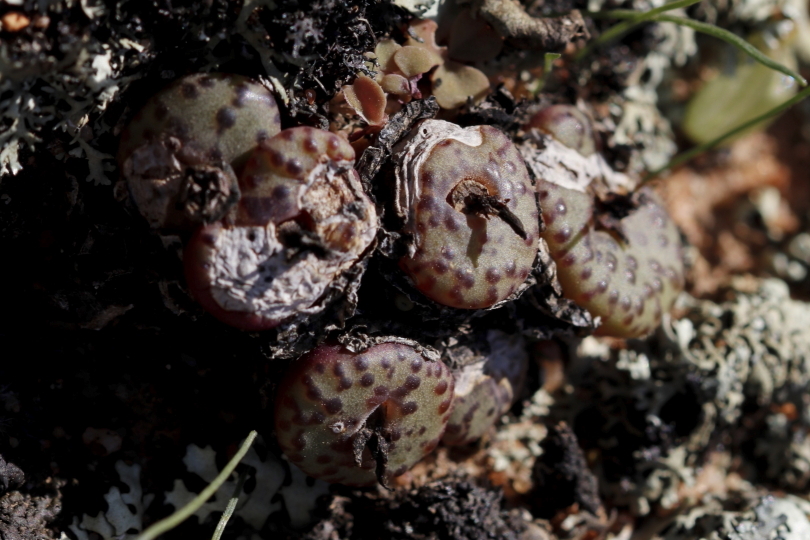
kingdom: Plantae
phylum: Tracheophyta
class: Magnoliopsida
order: Caryophyllales
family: Aizoaceae
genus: Conophytum
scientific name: Conophytum obcordellum
